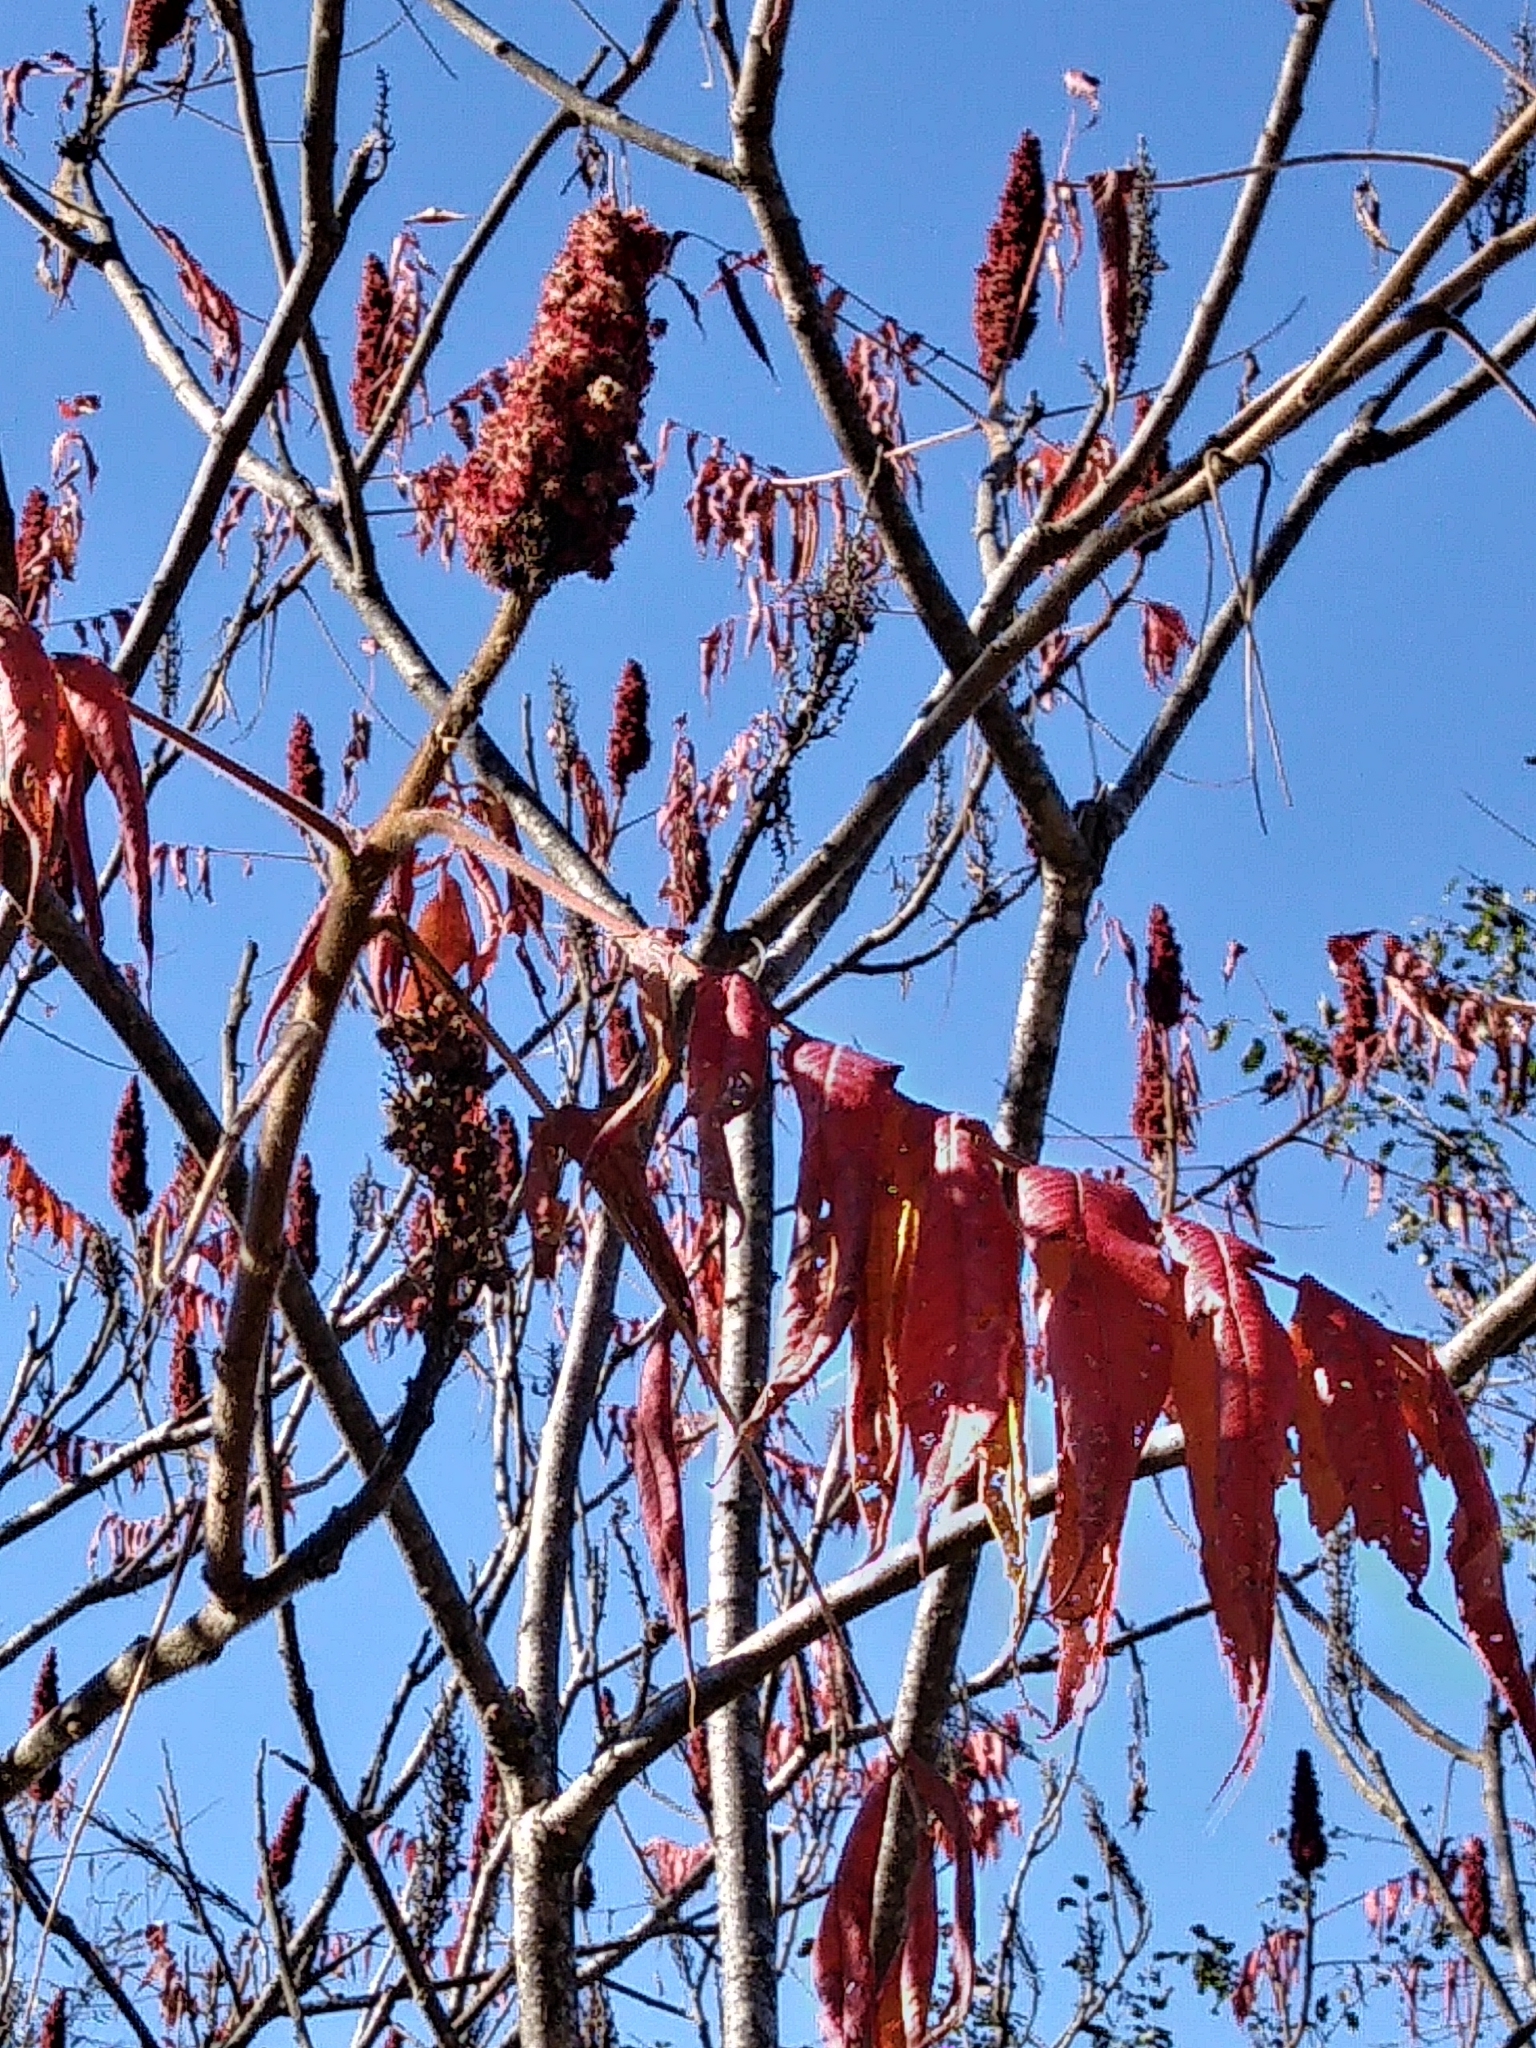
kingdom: Plantae
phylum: Tracheophyta
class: Magnoliopsida
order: Sapindales
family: Anacardiaceae
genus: Rhus
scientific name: Rhus typhina
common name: Staghorn sumac
